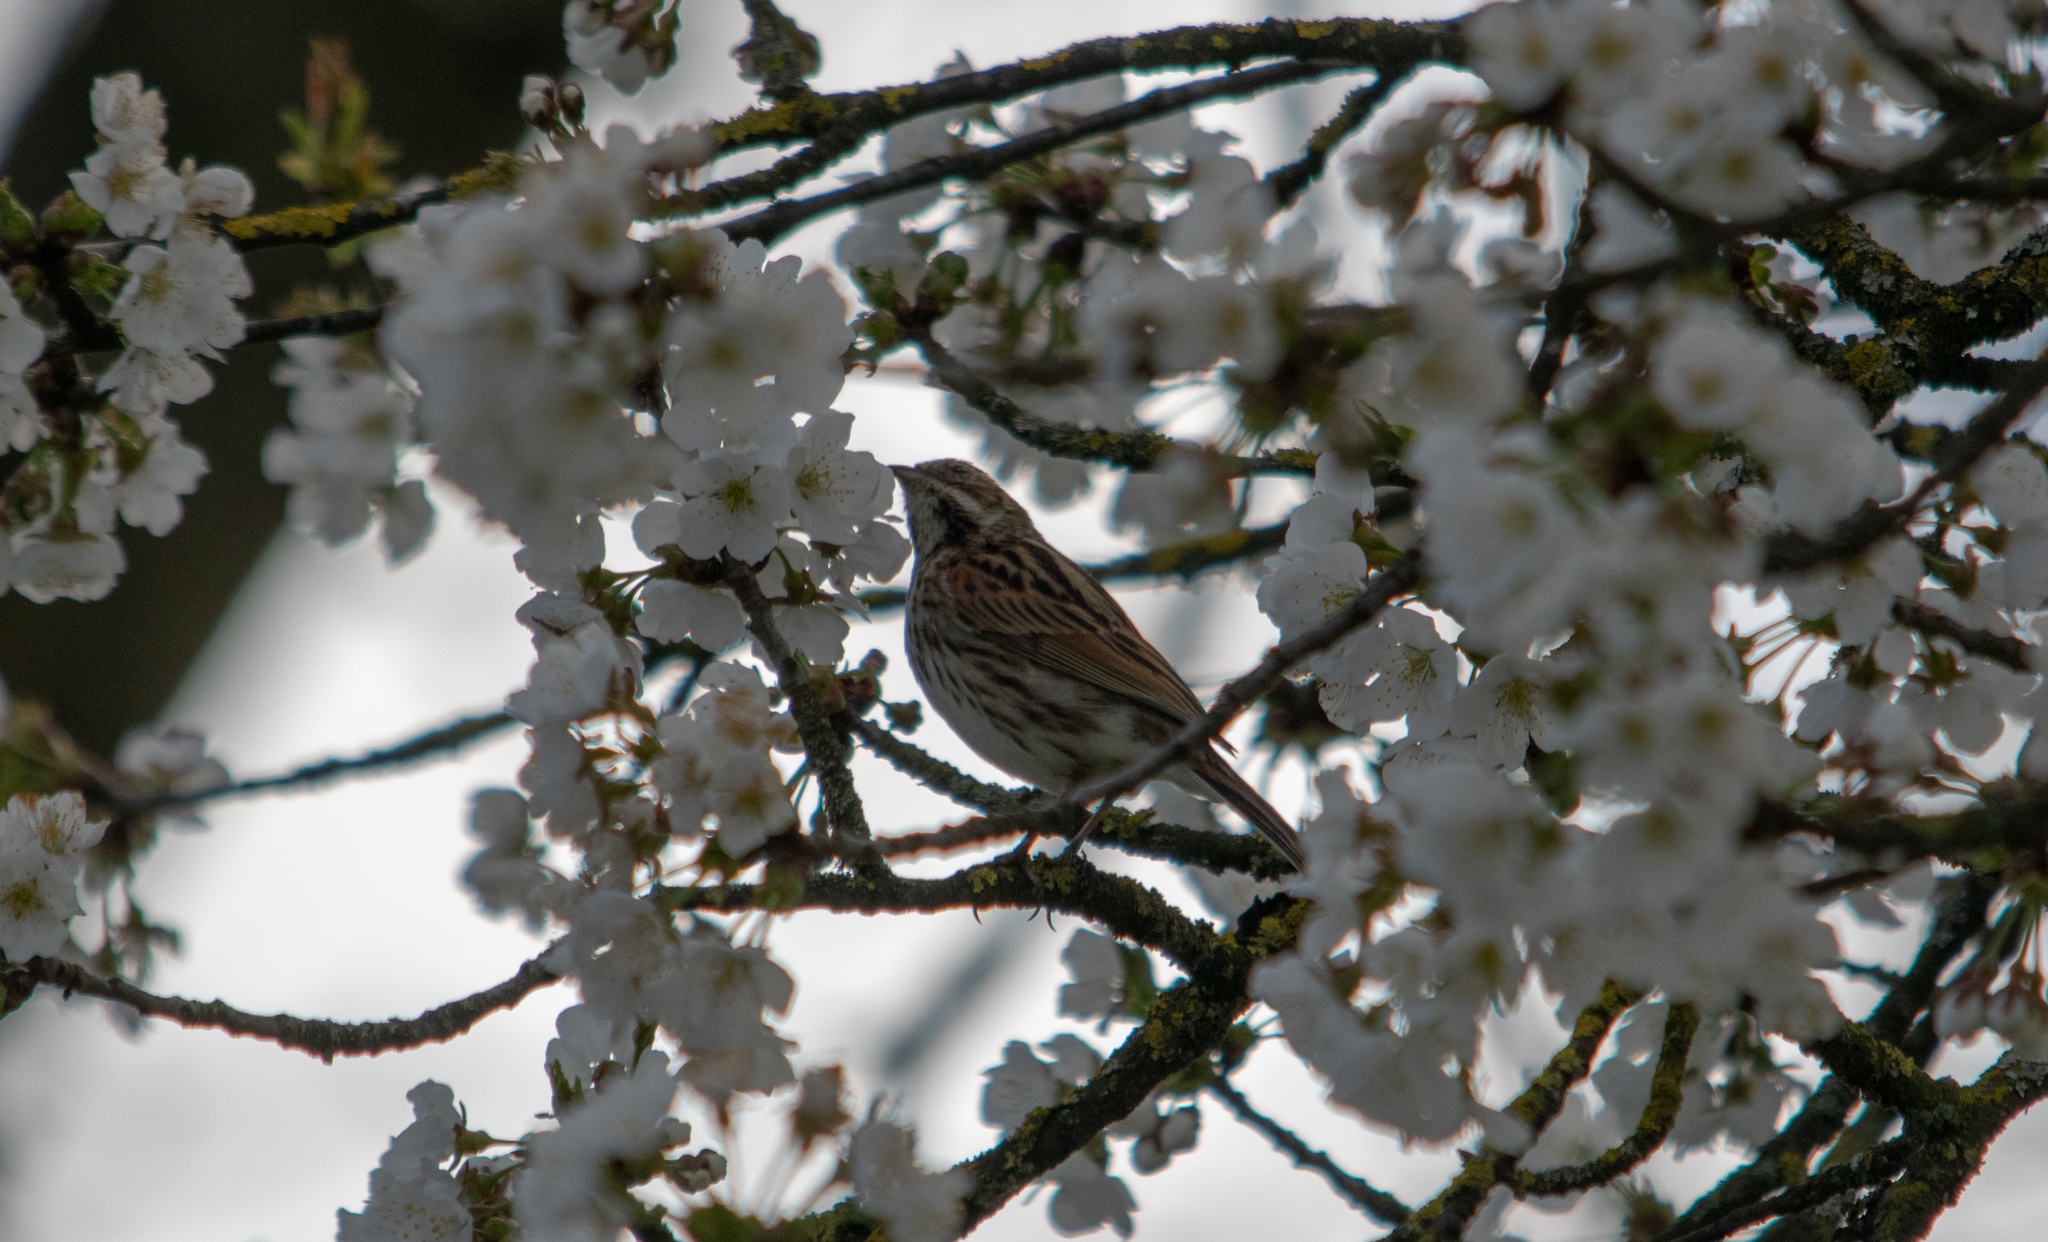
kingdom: Animalia
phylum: Chordata
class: Aves
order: Passeriformes
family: Emberizidae
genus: Emberiza
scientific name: Emberiza schoeniclus
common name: Reed bunting
